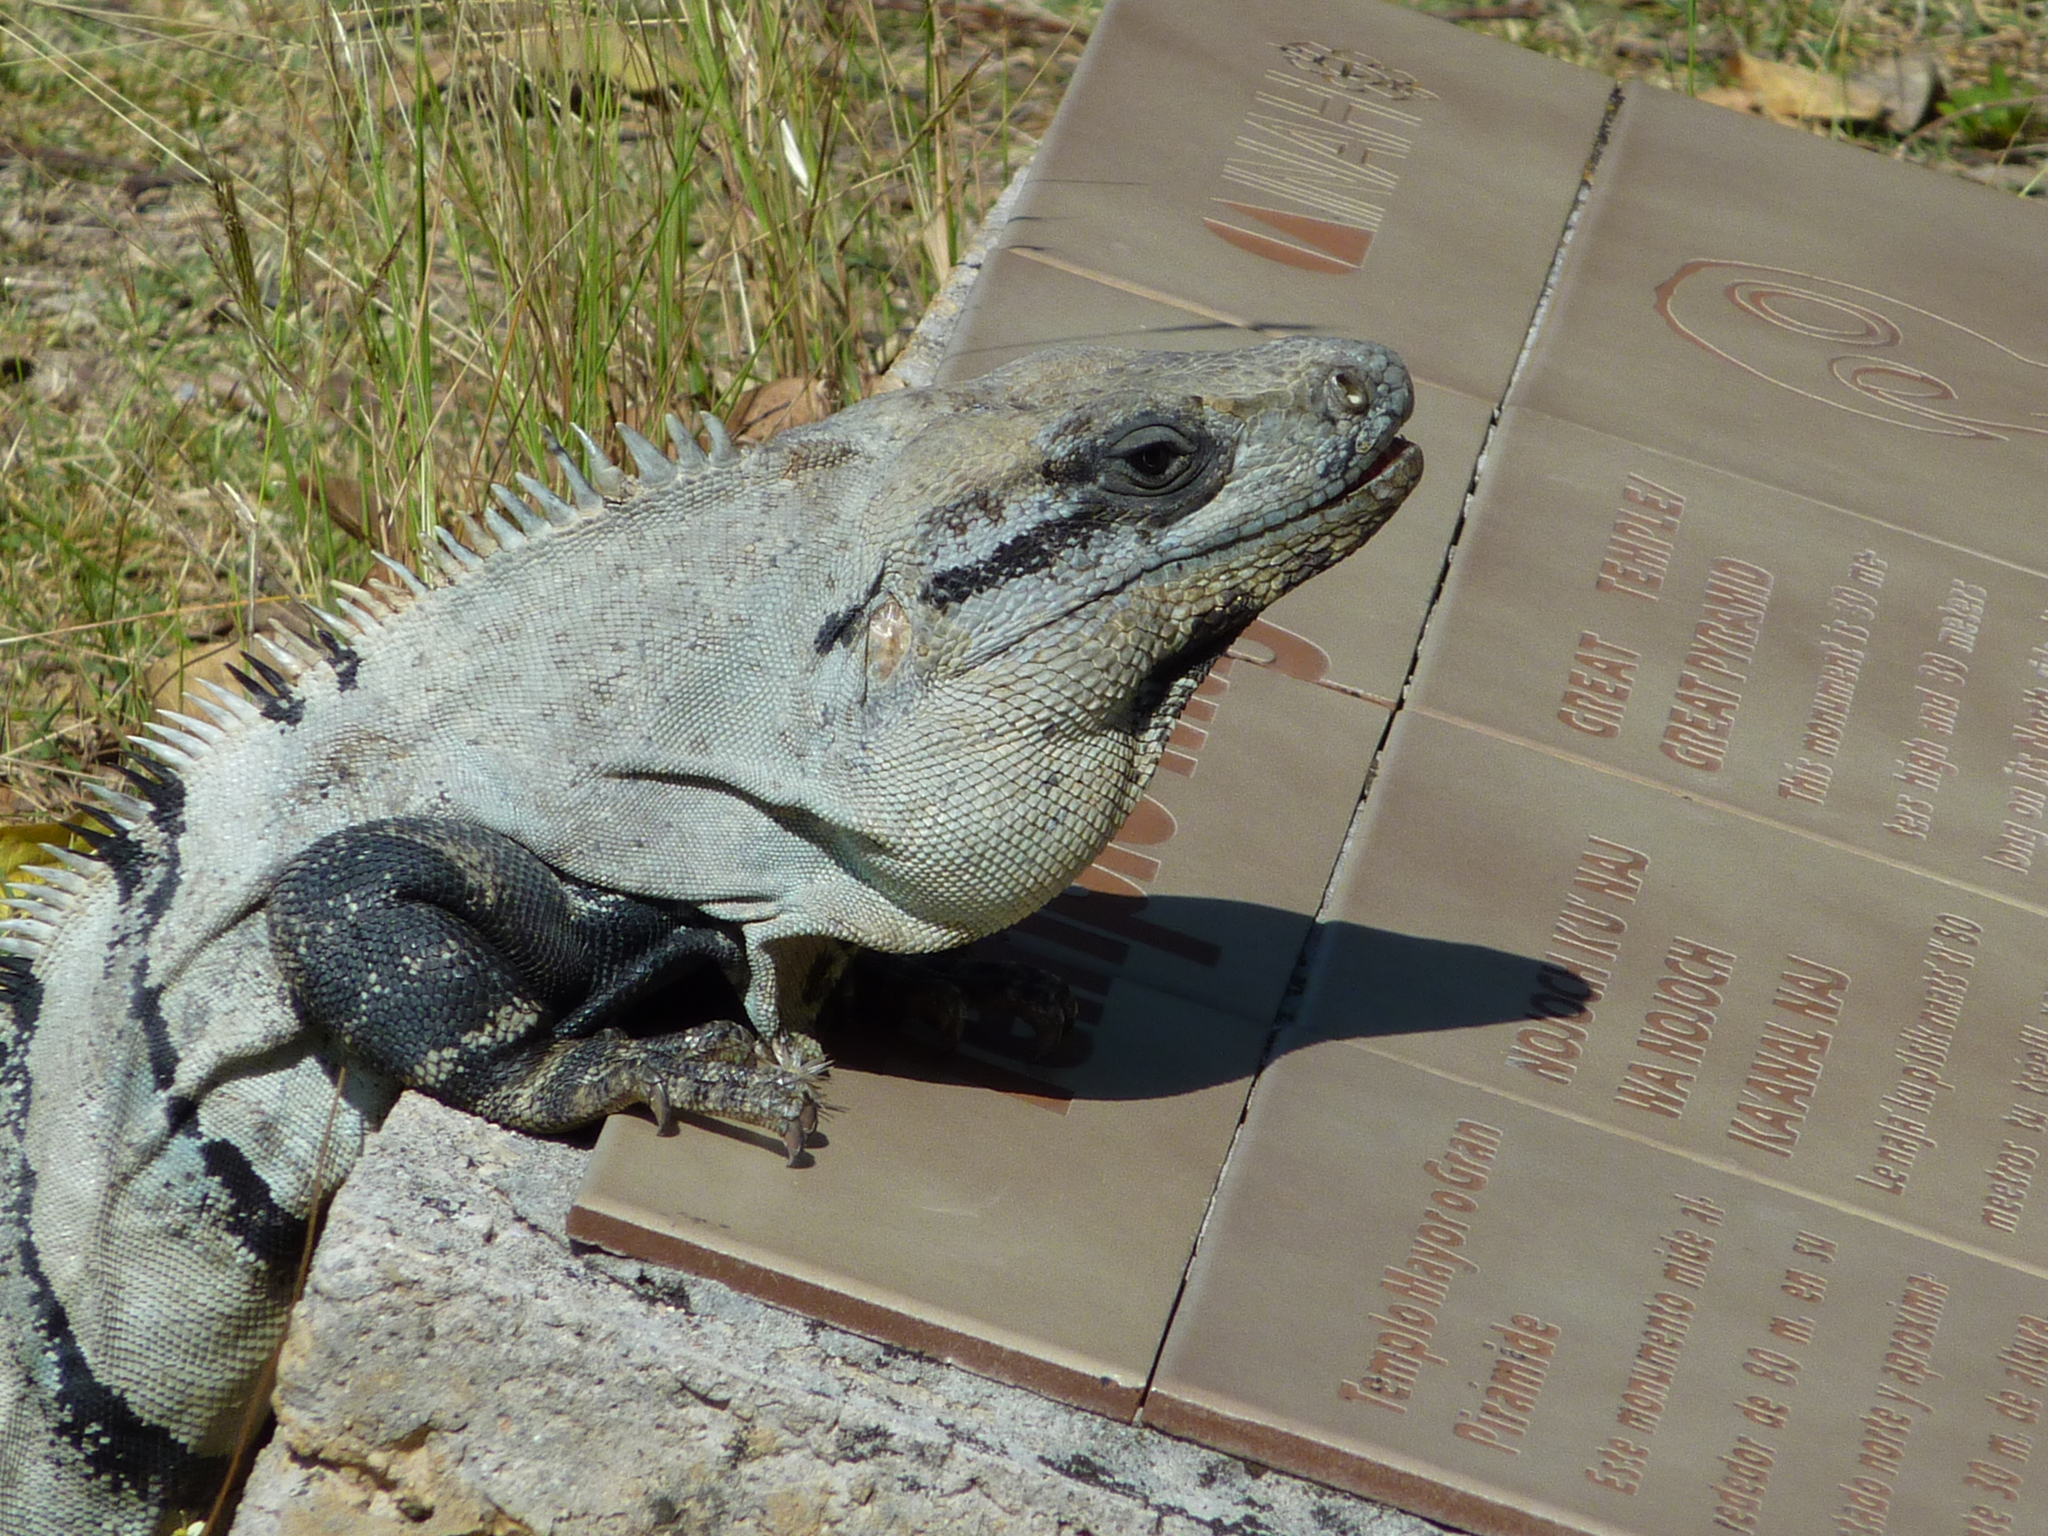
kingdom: Animalia
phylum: Chordata
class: Squamata
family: Iguanidae
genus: Ctenosaura
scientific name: Ctenosaura similis
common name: Black spiny-tailed iguana
